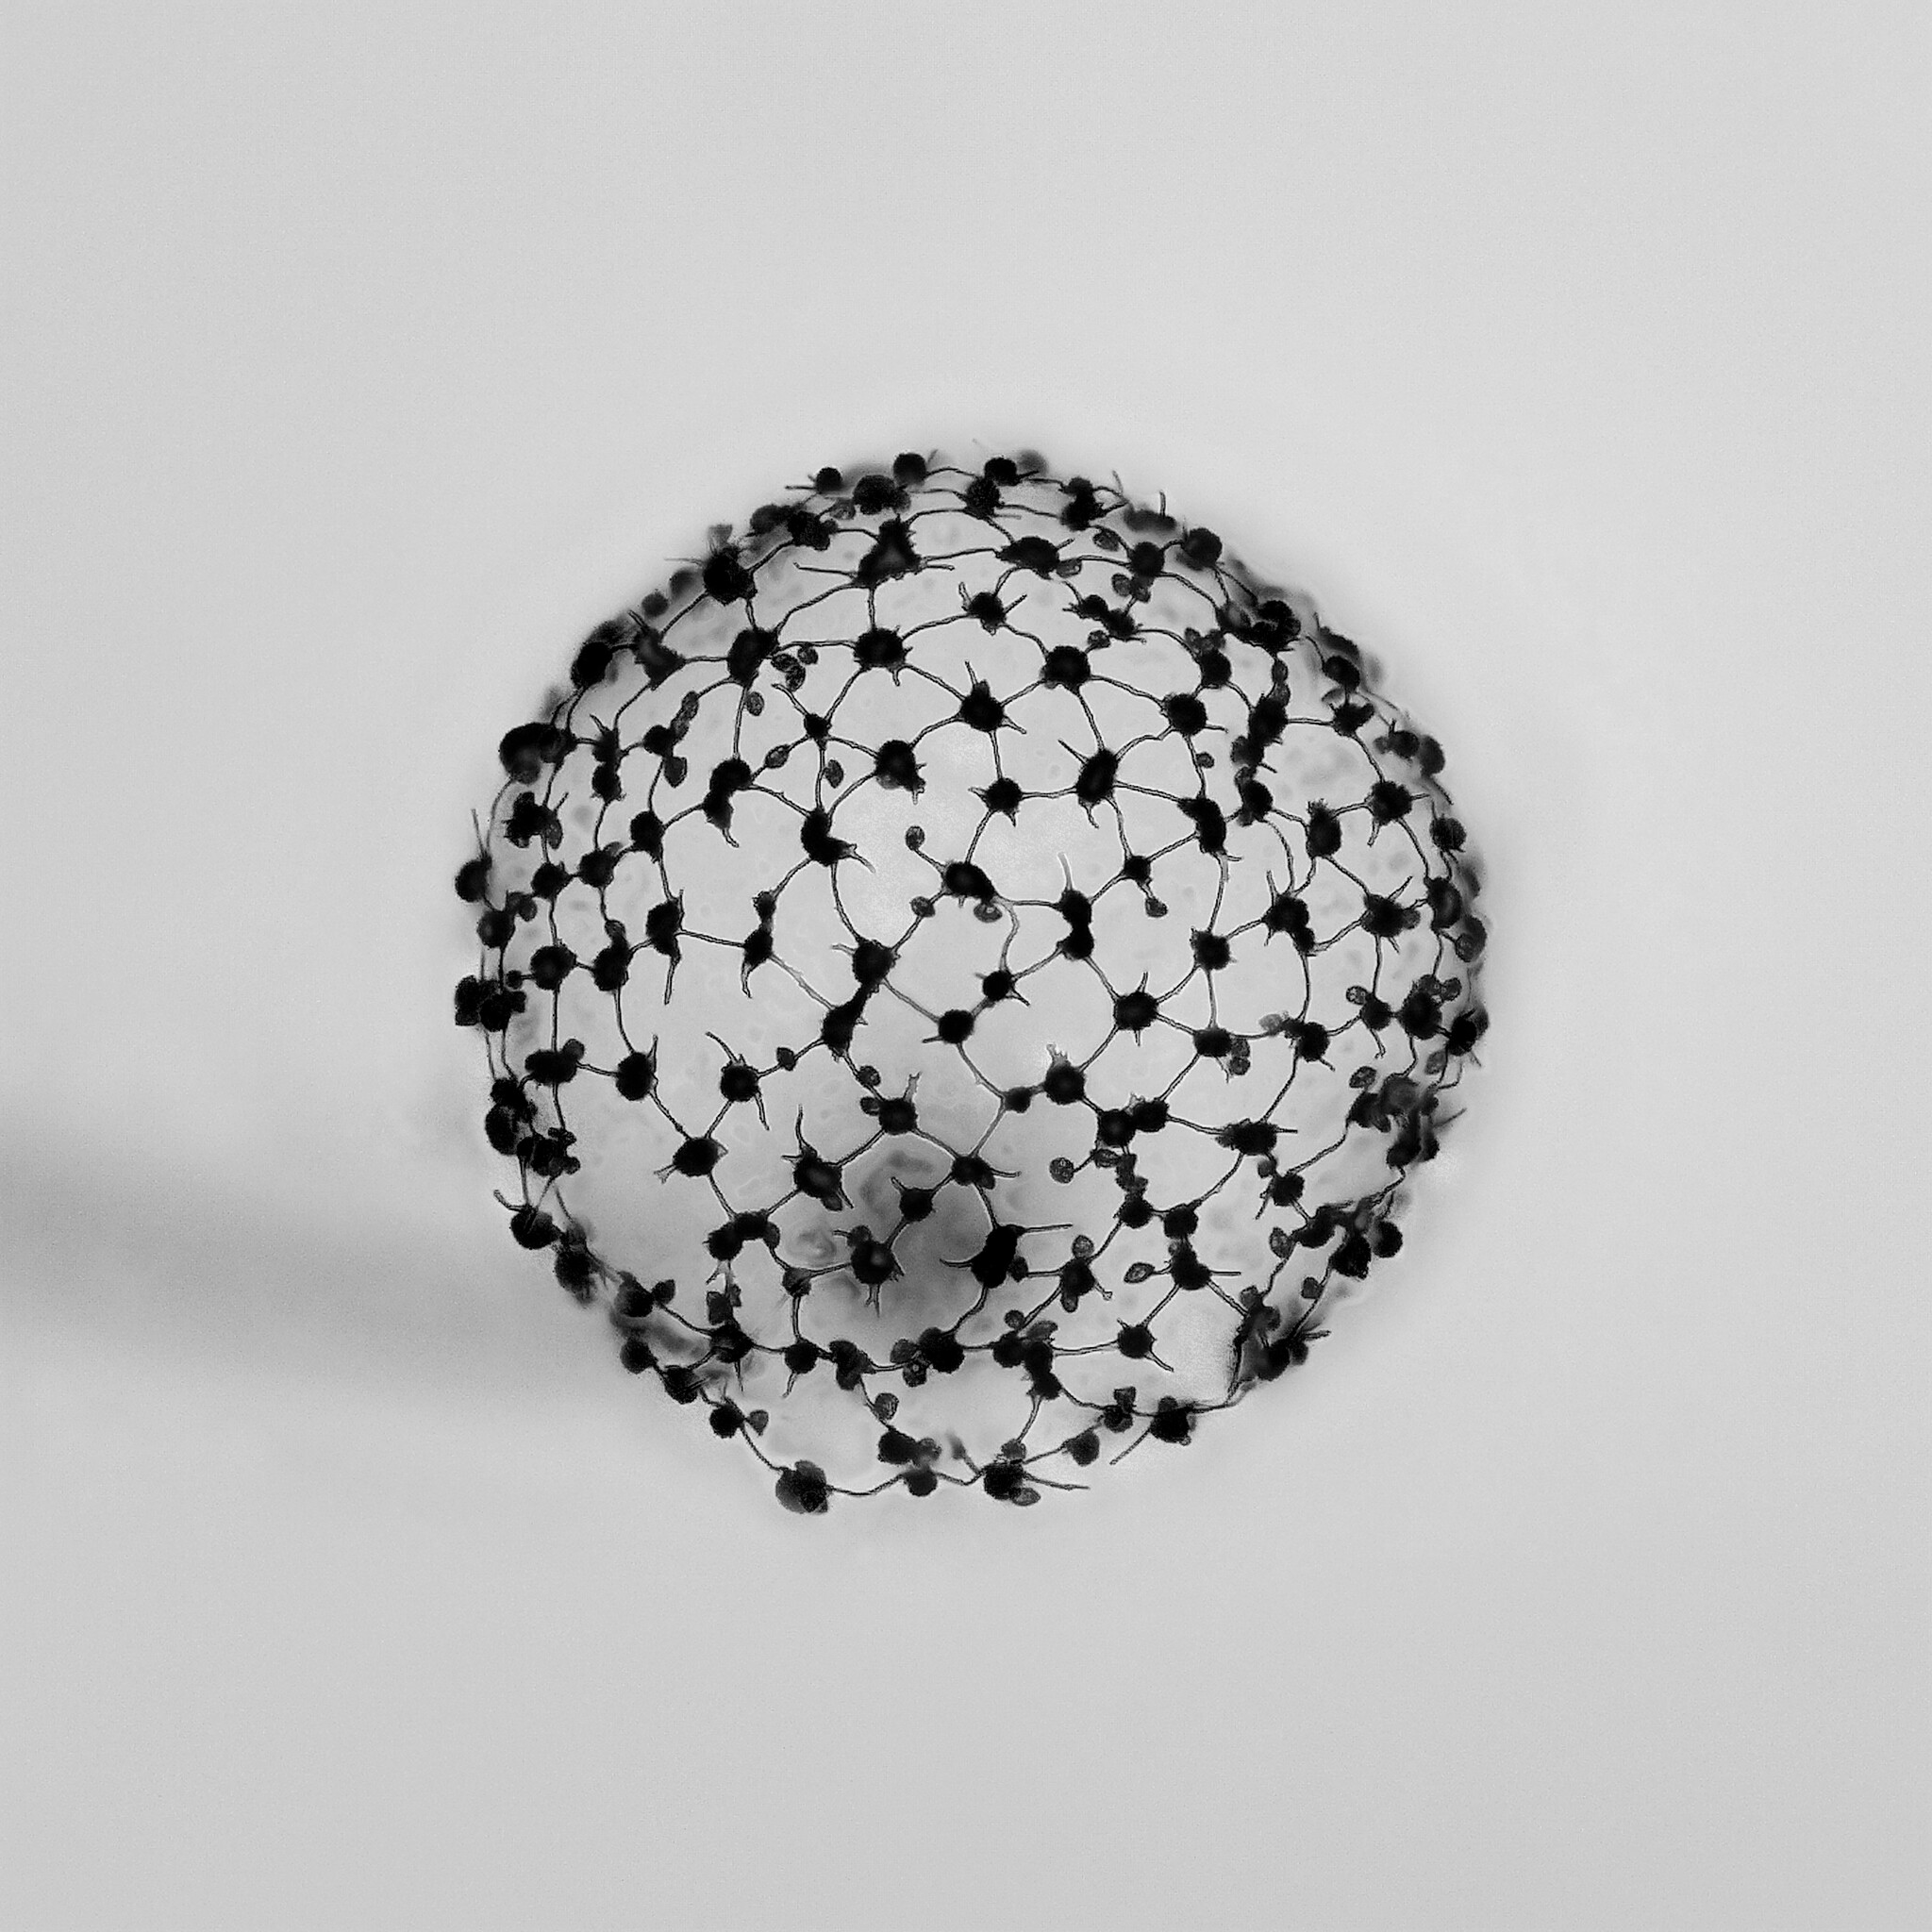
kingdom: Protozoa
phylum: Mycetozoa
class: Myxomycetes
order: Cribrariales
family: Cribrariaceae
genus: Cribraria
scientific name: Cribraria microcarpa
